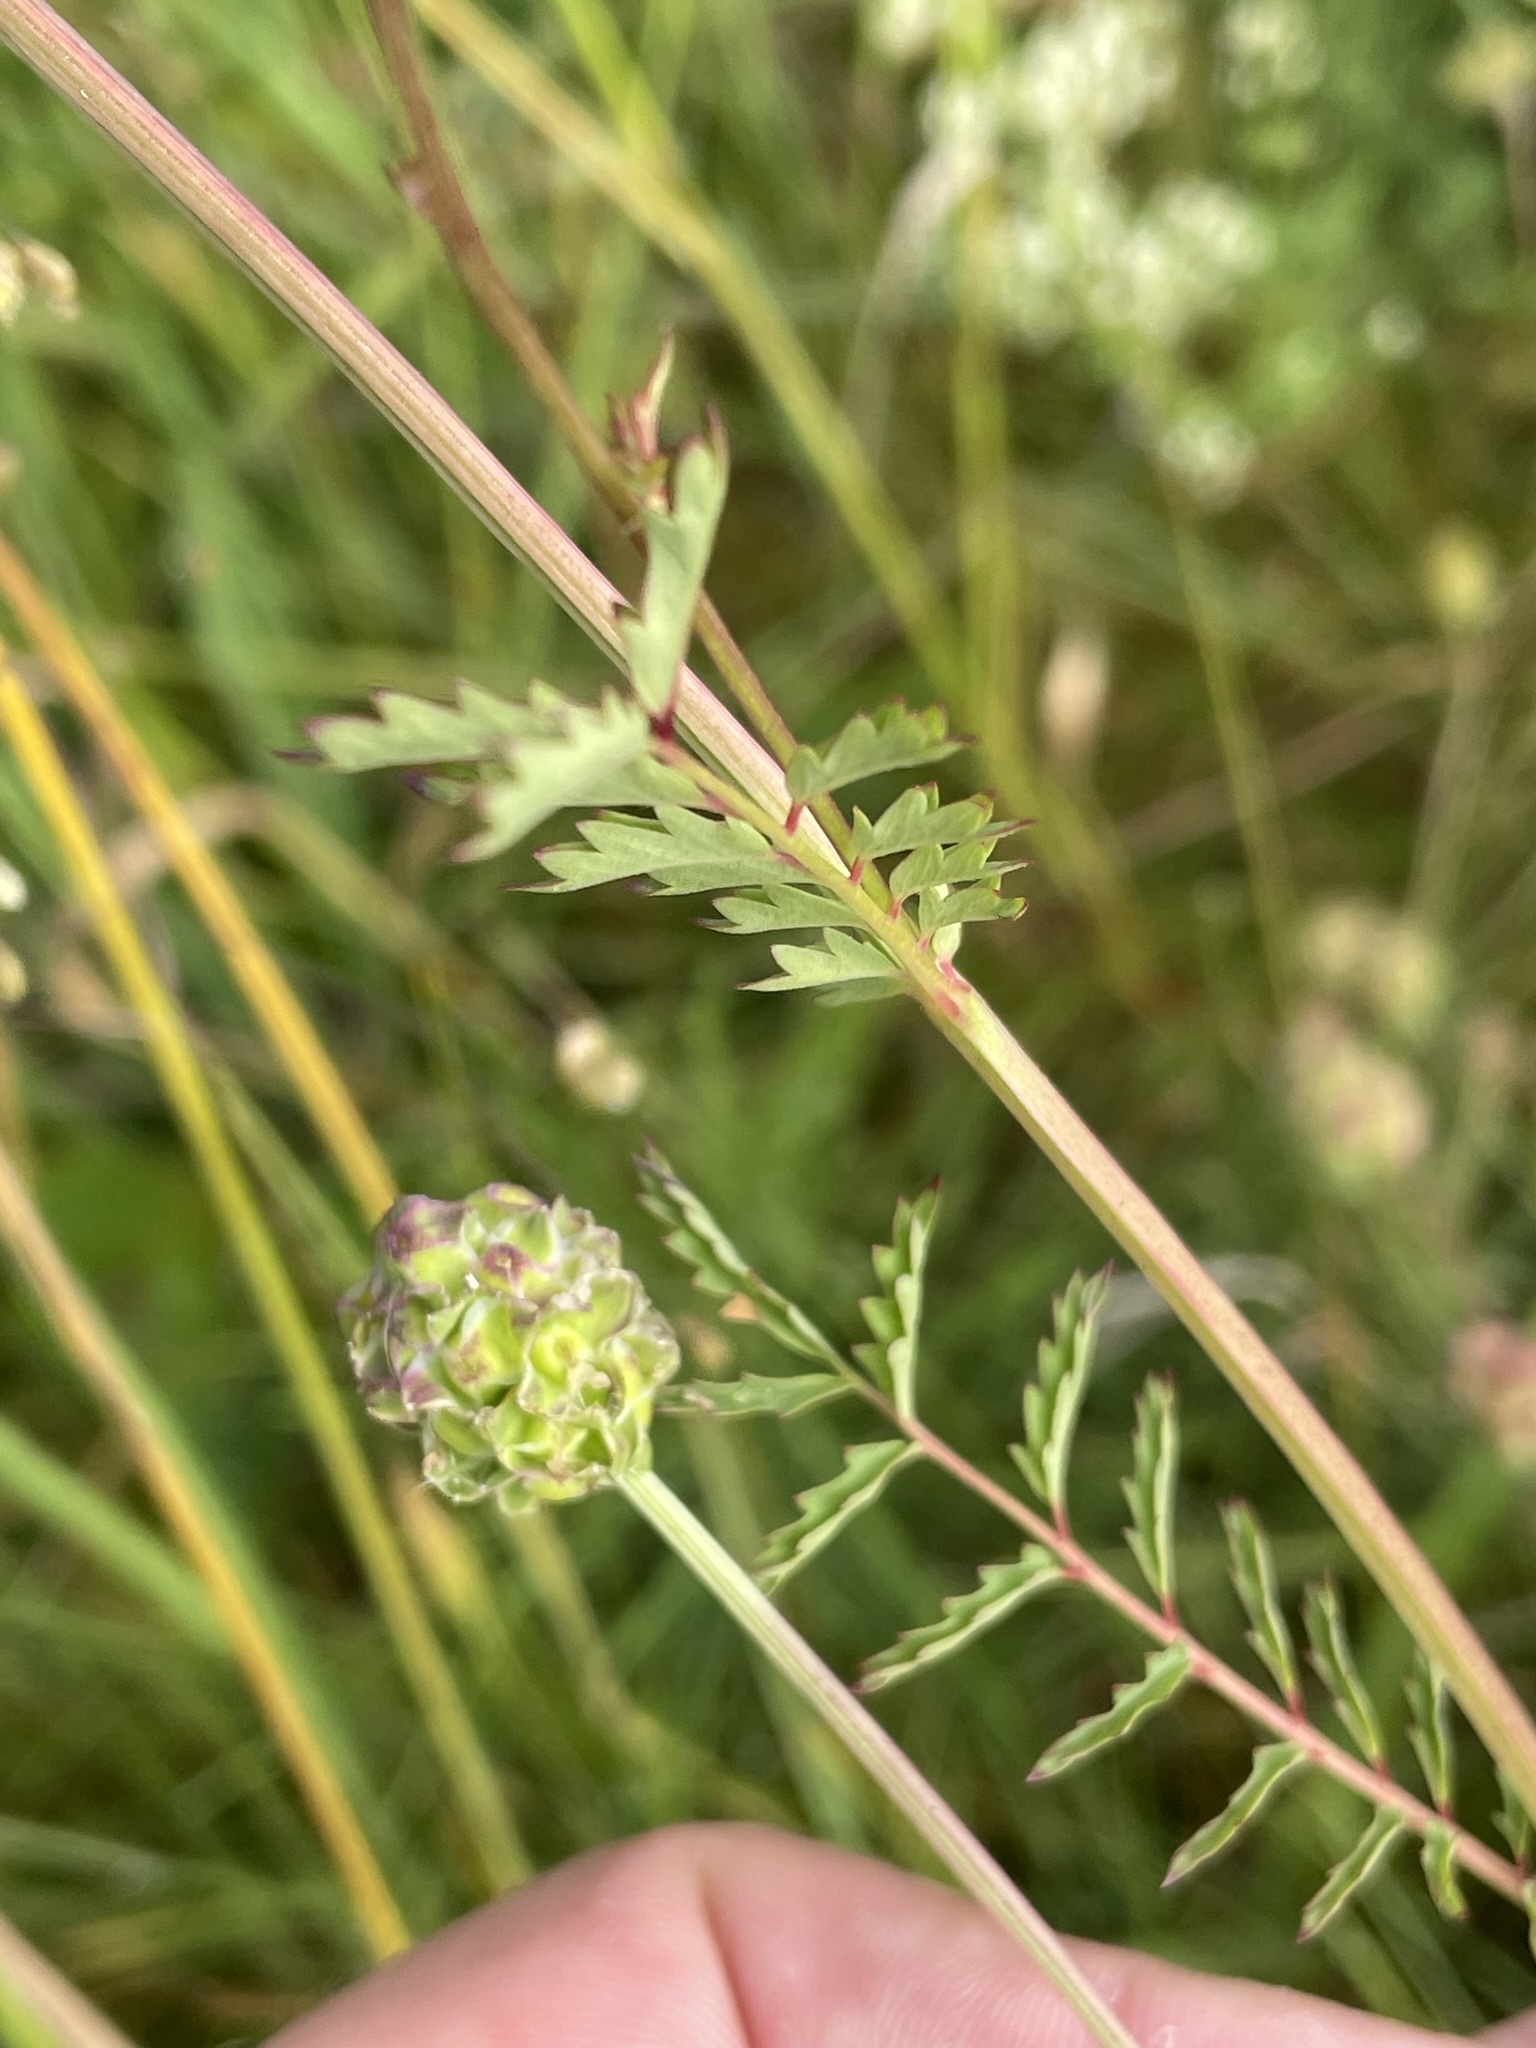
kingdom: Plantae
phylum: Tracheophyta
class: Magnoliopsida
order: Rosales
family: Rosaceae
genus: Poterium
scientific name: Poterium sanguisorba
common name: Salad burnet
